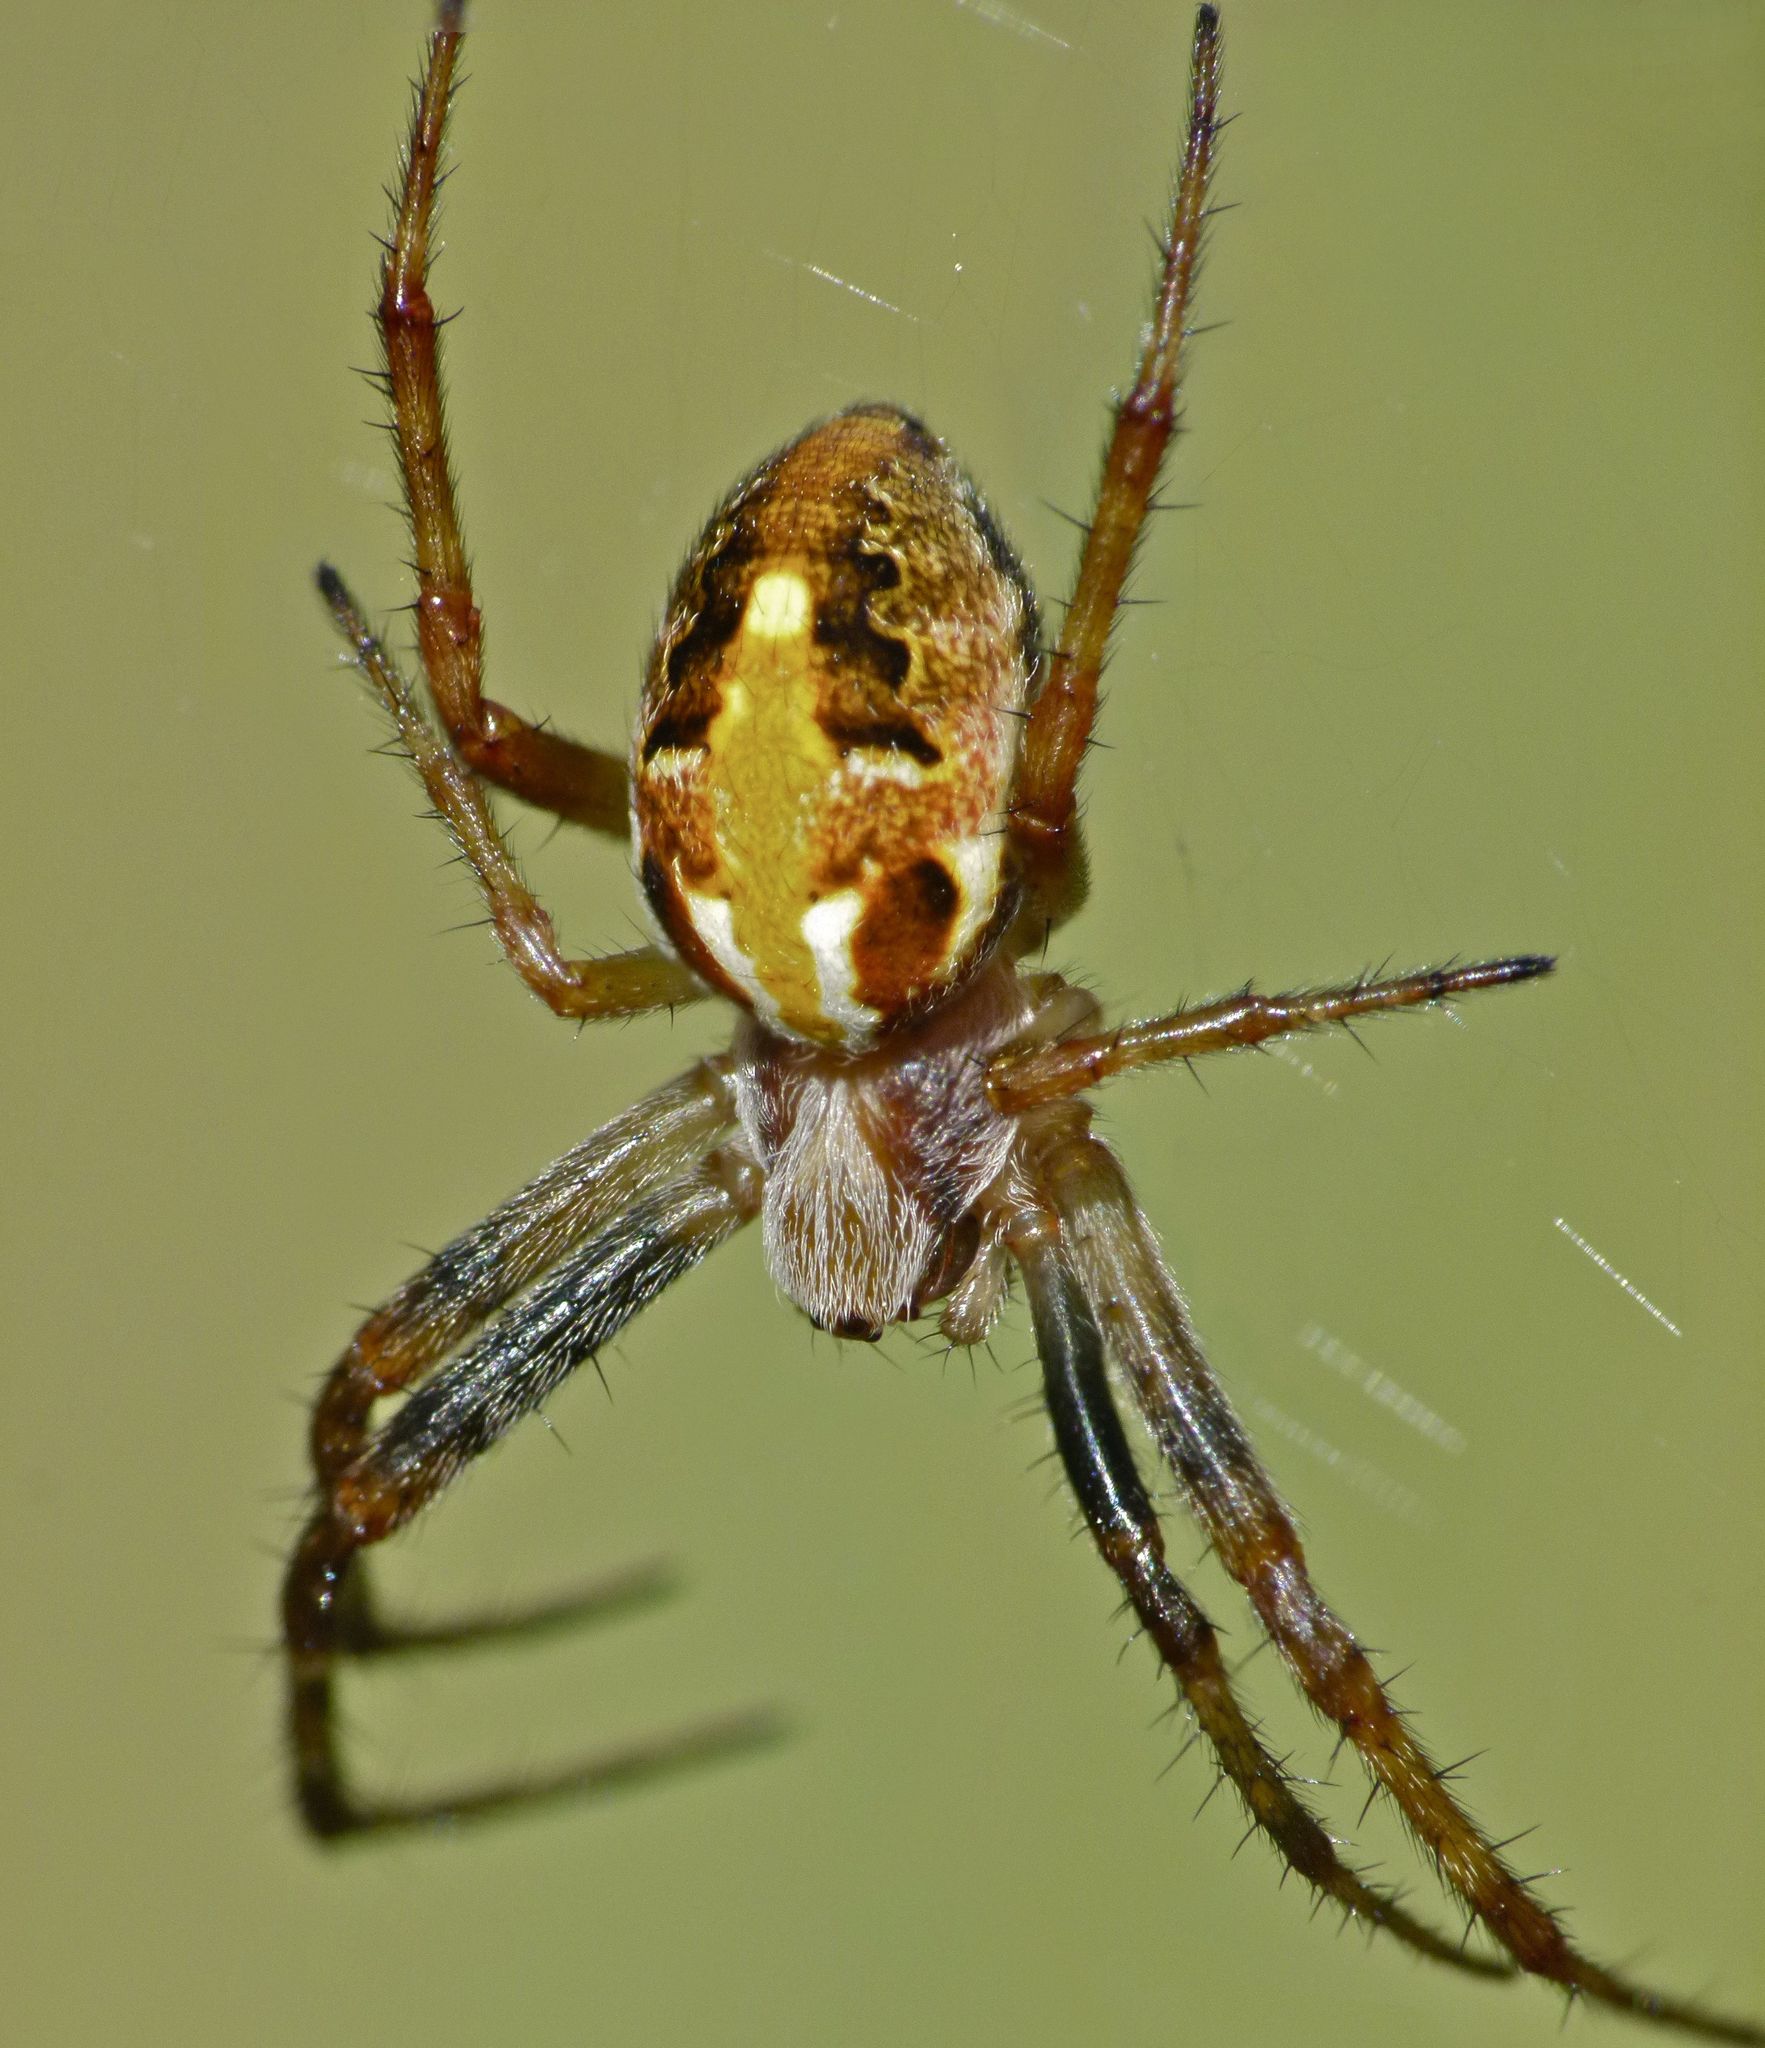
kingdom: Animalia
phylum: Arthropoda
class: Arachnida
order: Araneae
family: Araneidae
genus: Novaranea
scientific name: Novaranea queribunda
